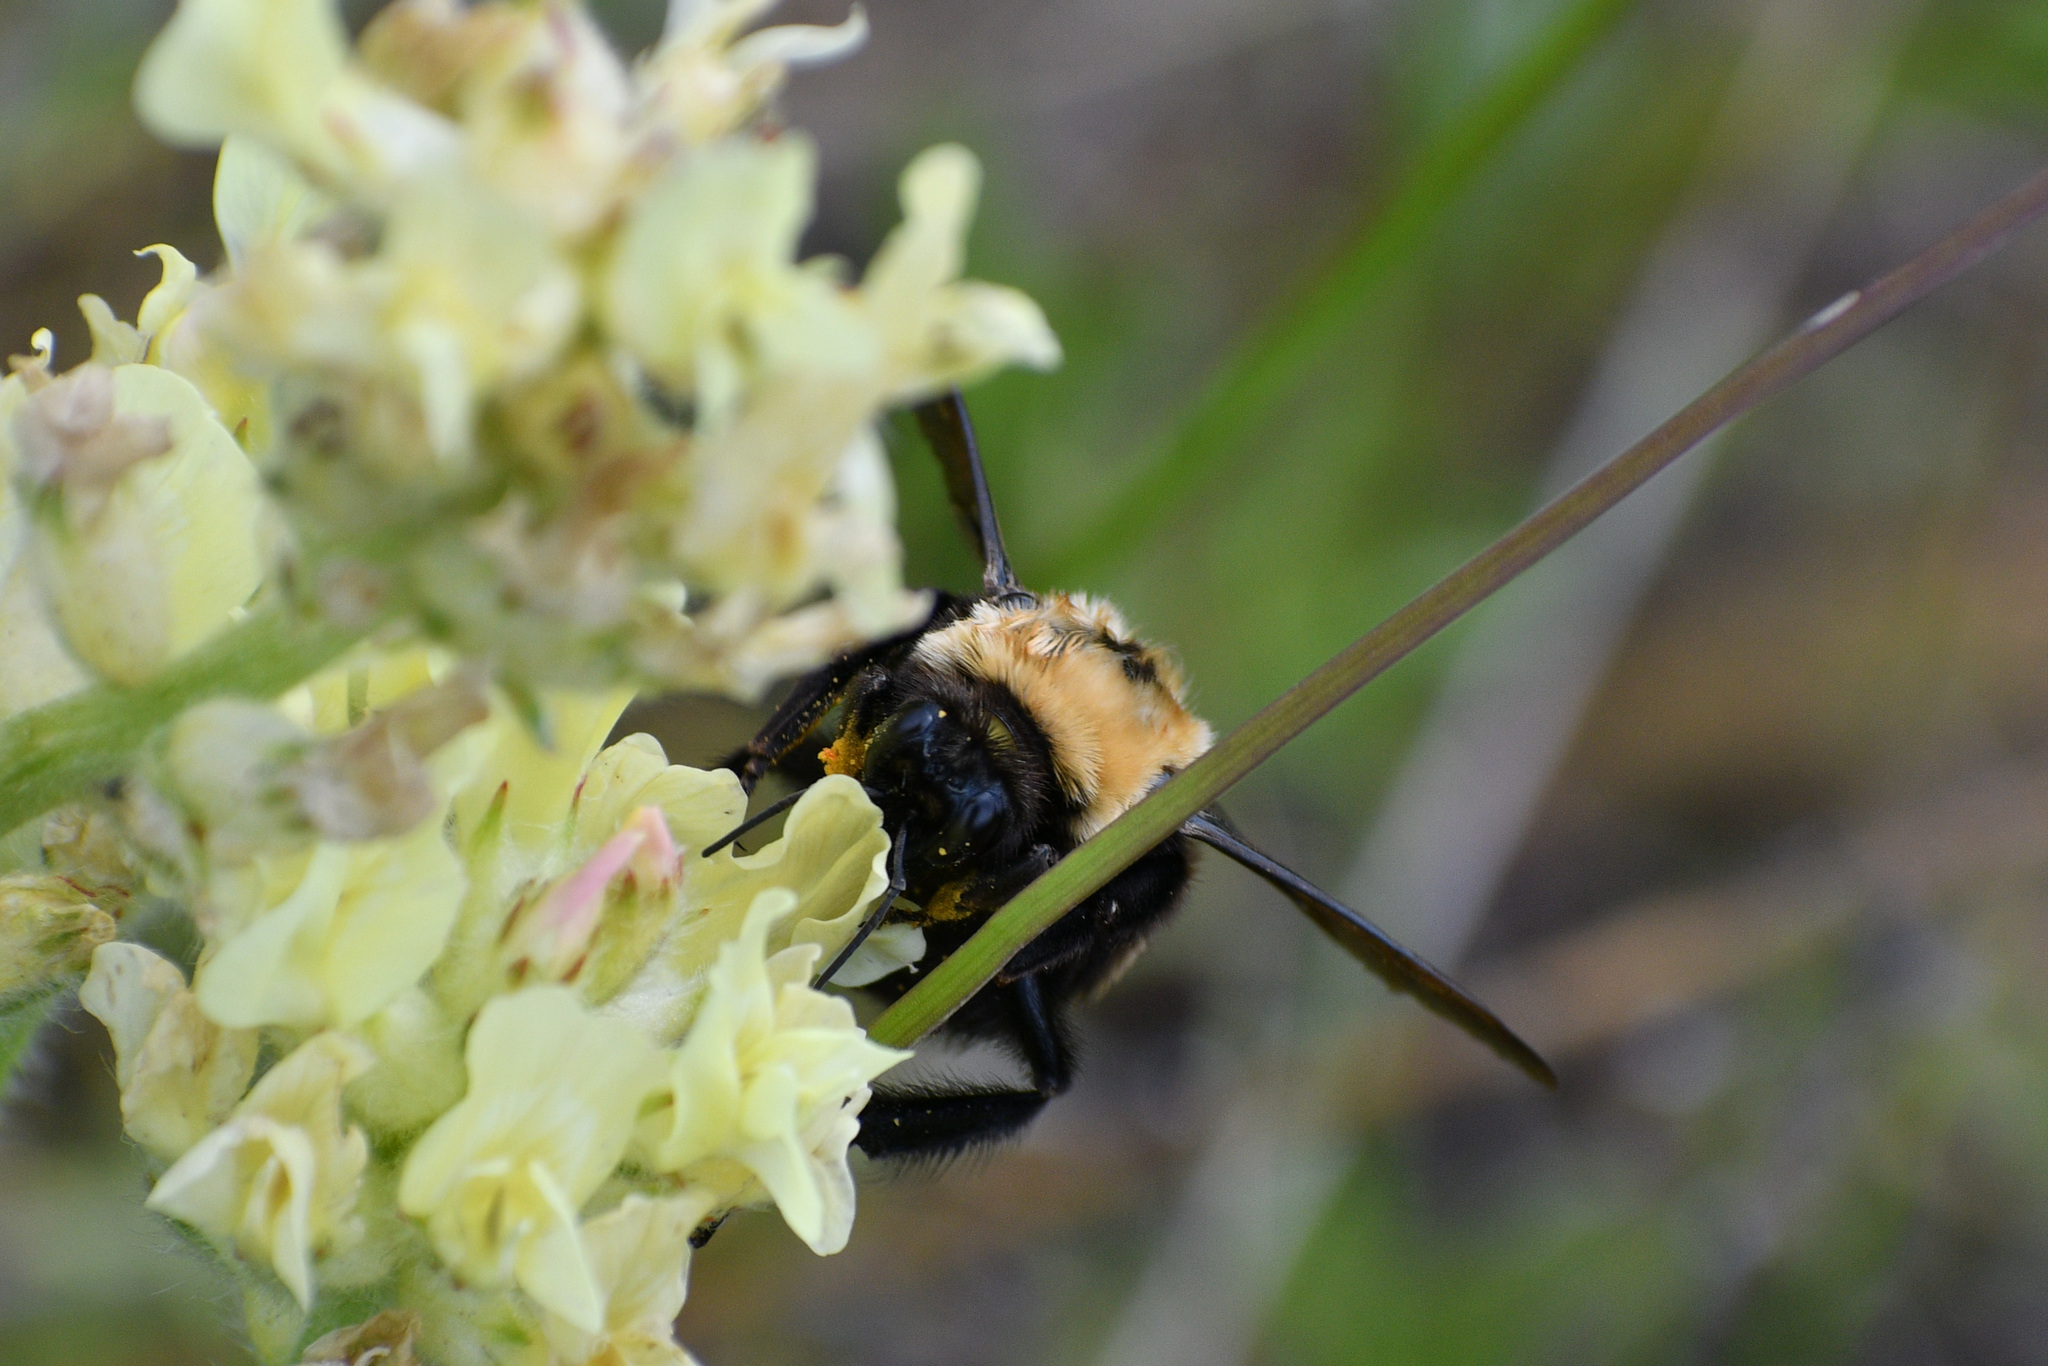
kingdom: Animalia
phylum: Arthropoda
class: Insecta
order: Hymenoptera
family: Apidae
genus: Bombus
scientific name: Bombus nevadensis
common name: Nevada bumble bee
